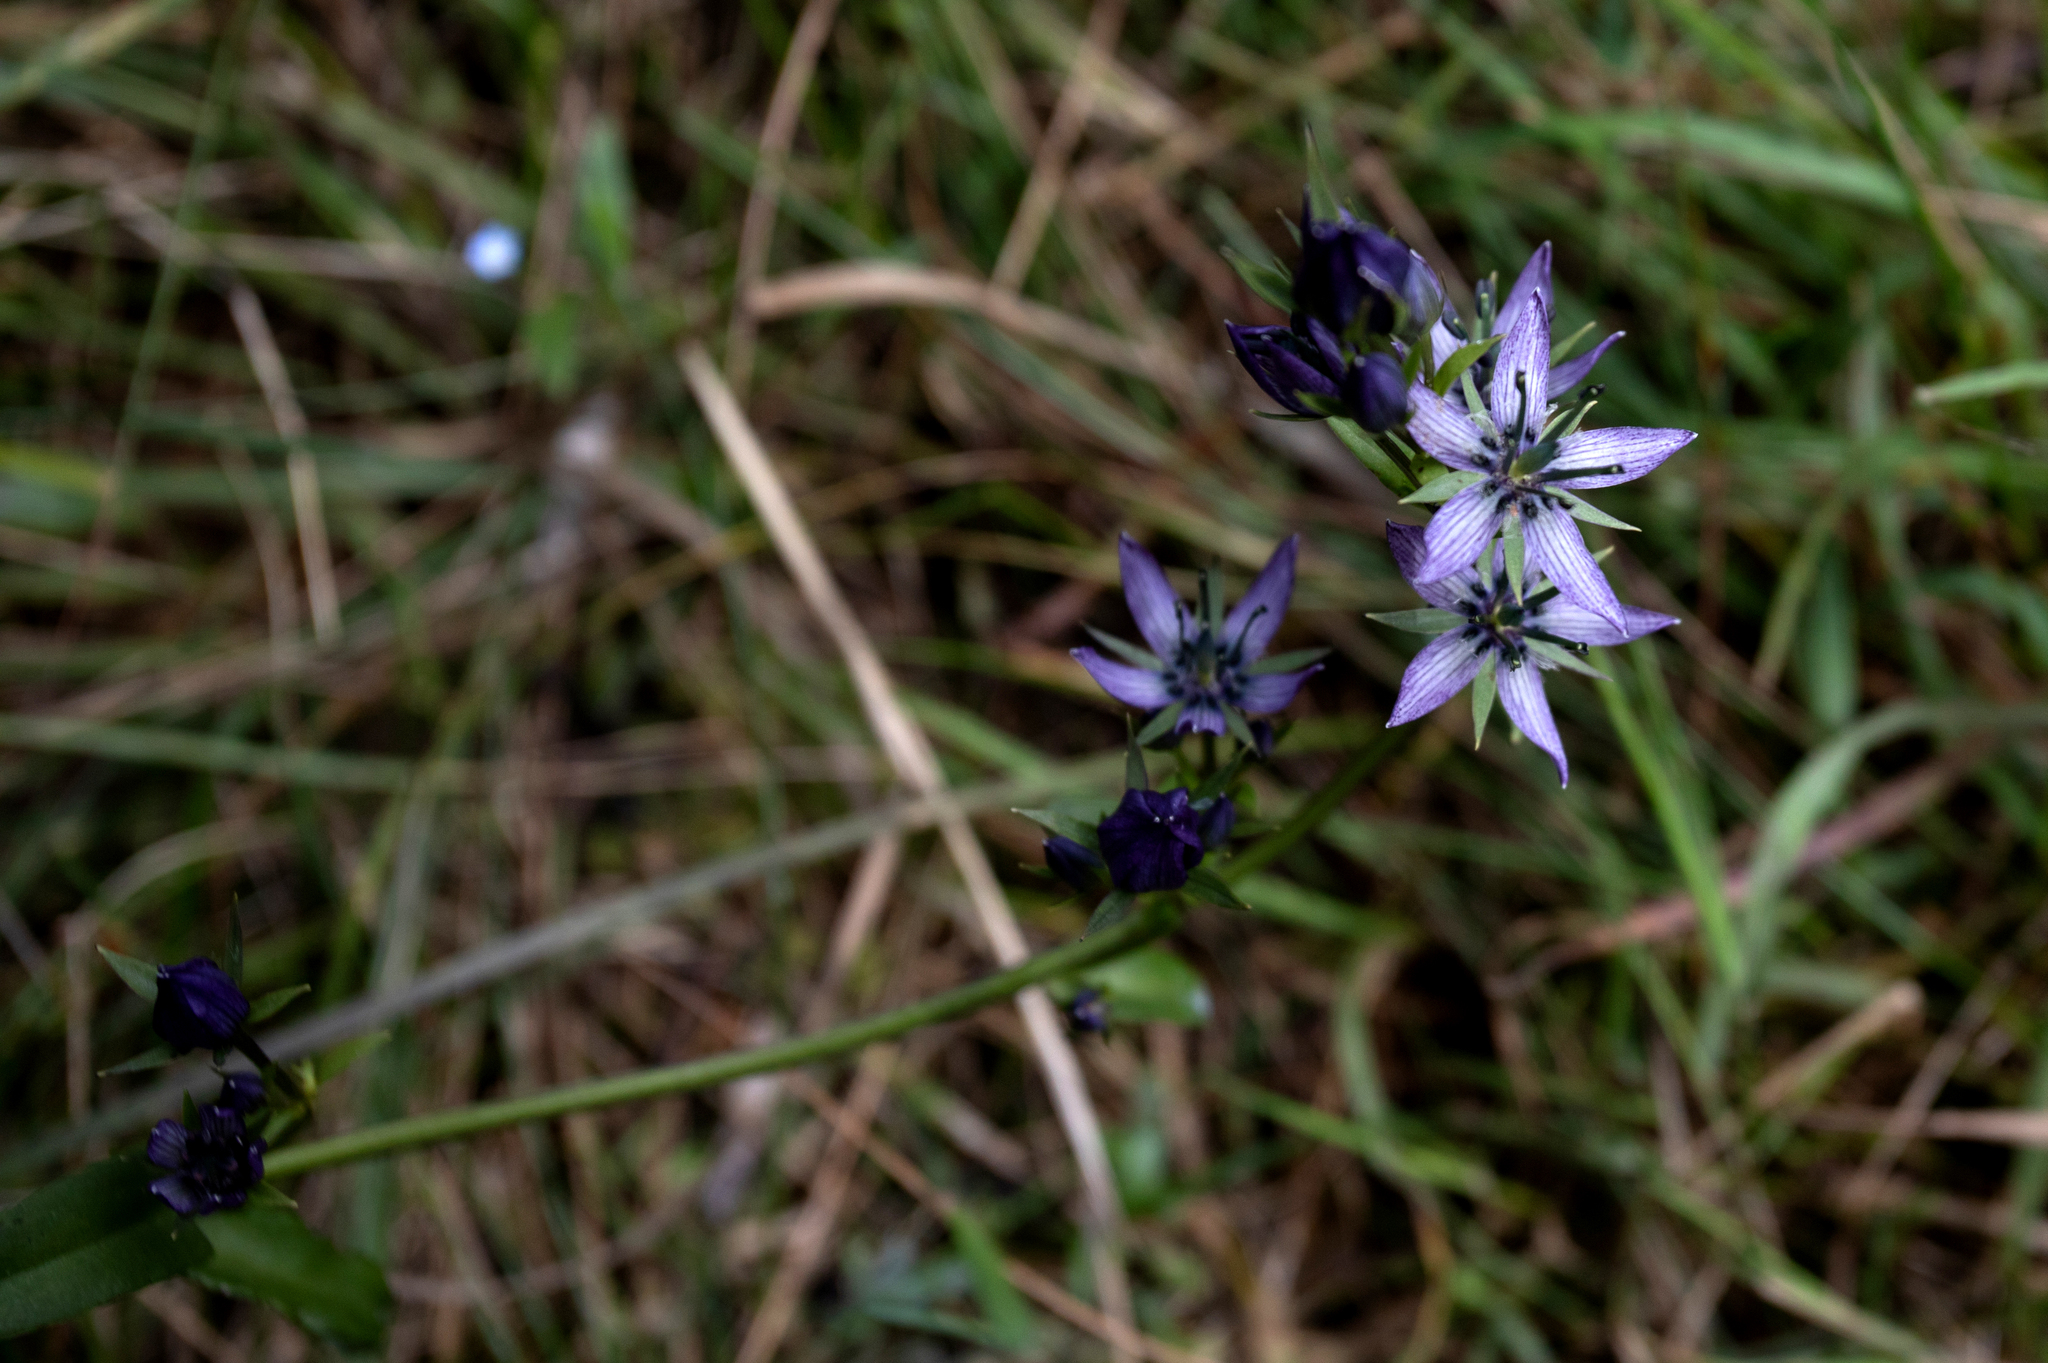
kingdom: Plantae
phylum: Tracheophyta
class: Magnoliopsida
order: Gentianales
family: Gentianaceae
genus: Swertia
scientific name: Swertia obtusa
